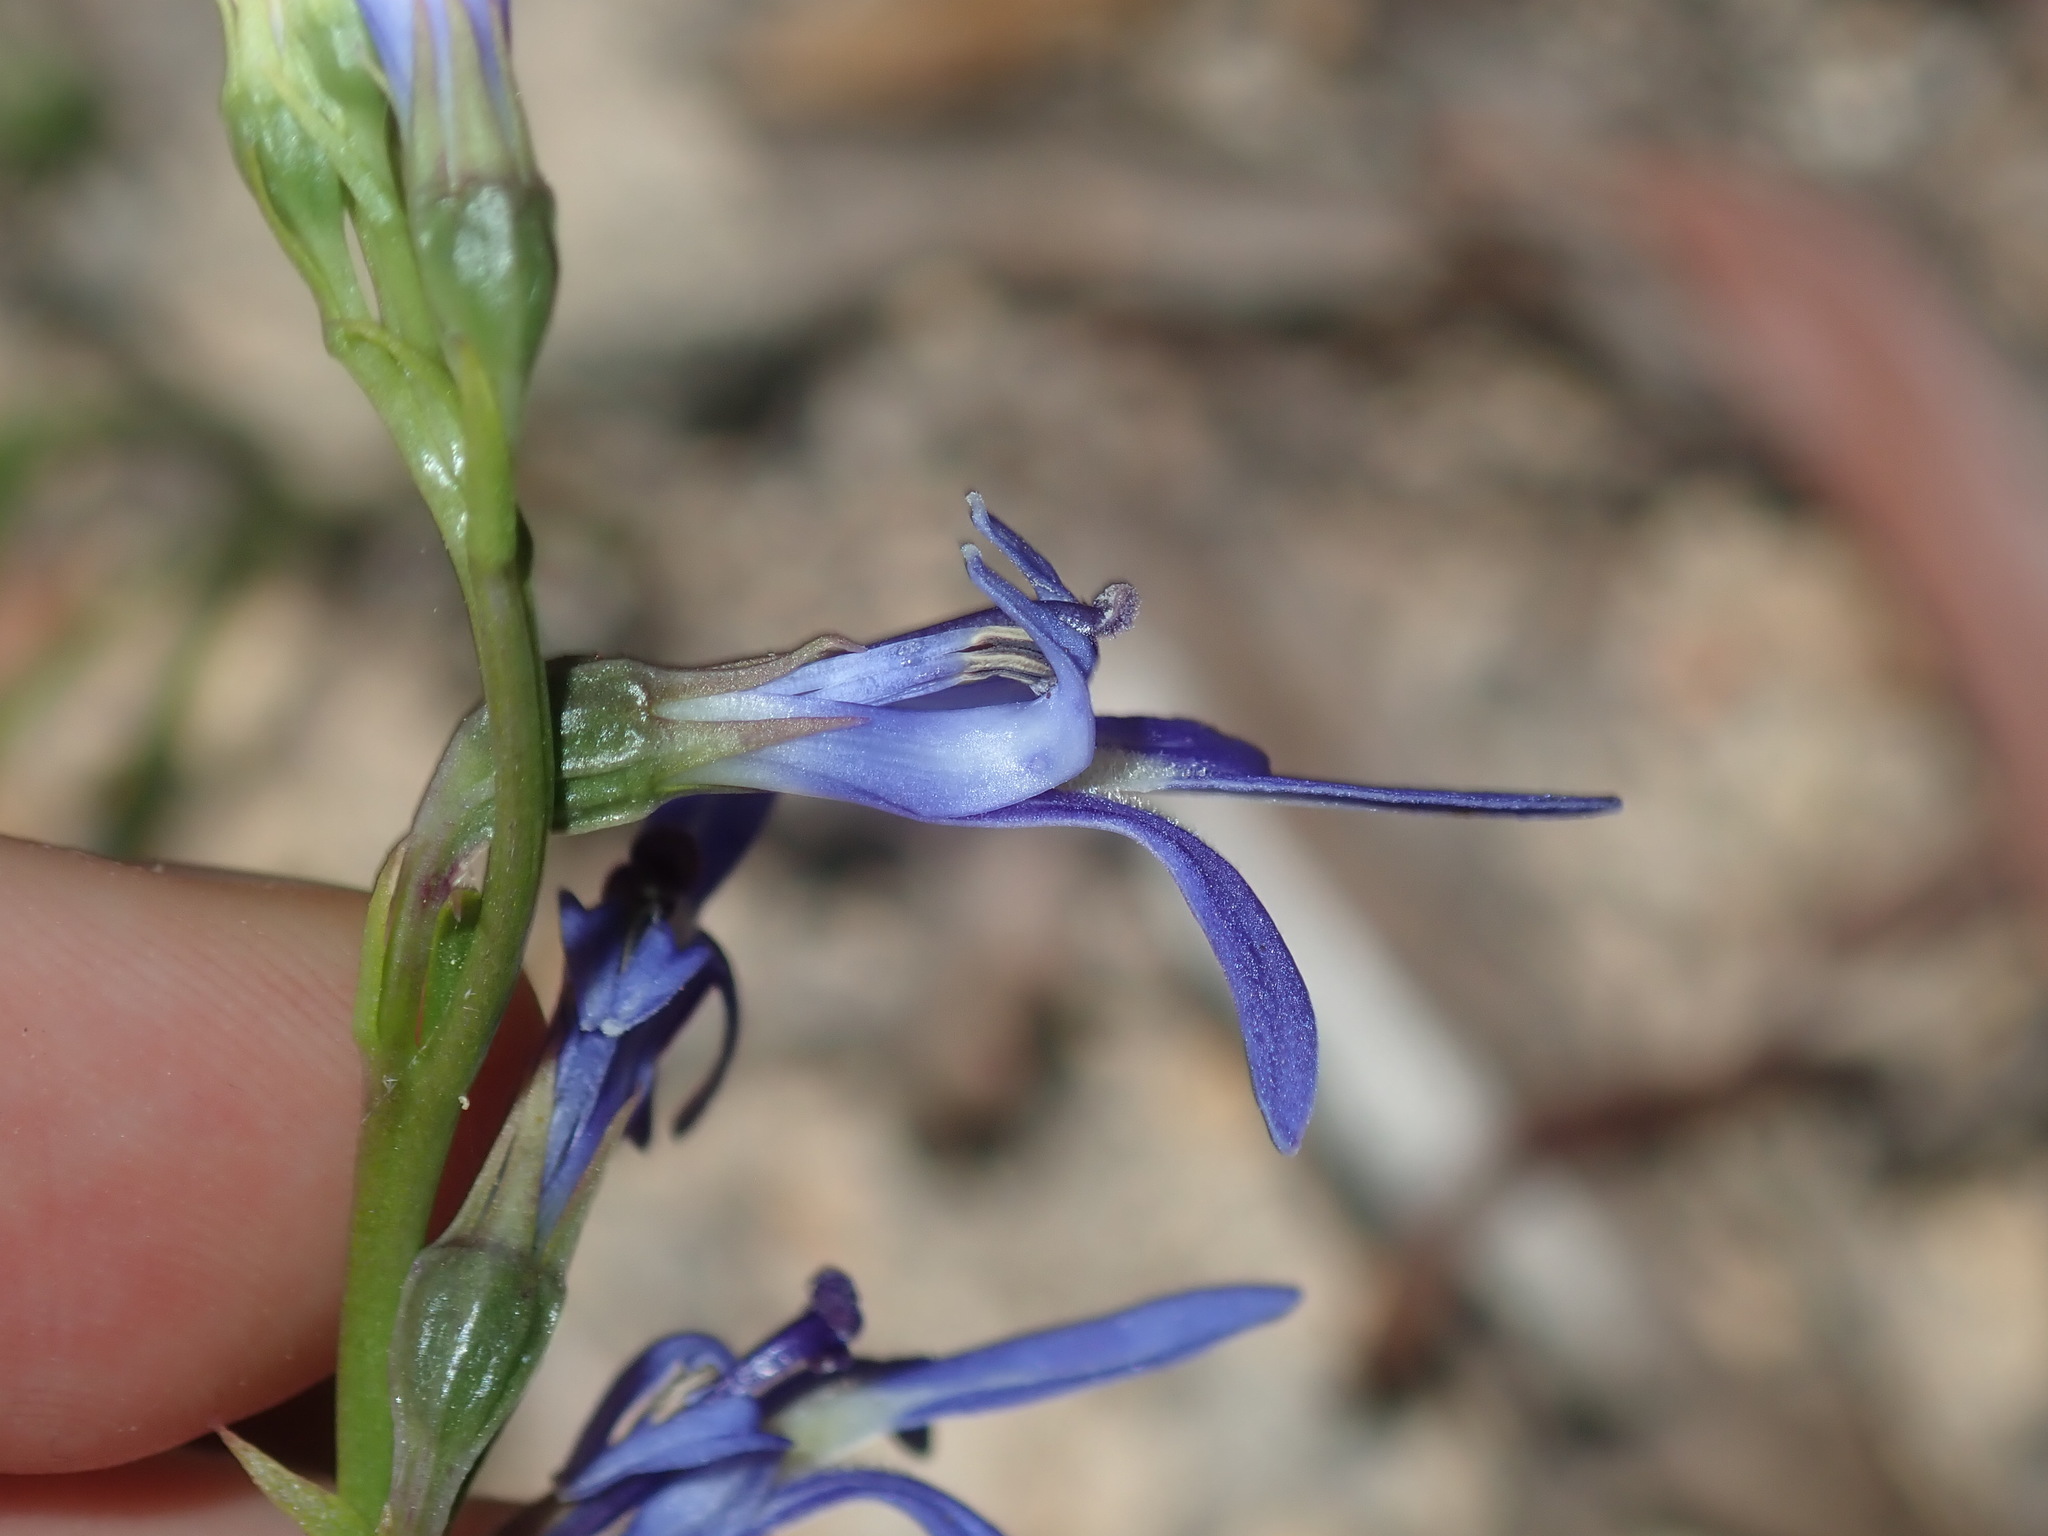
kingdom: Plantae
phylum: Tracheophyta
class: Magnoliopsida
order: Asterales
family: Campanulaceae
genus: Lobelia
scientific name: Lobelia gibbosa
